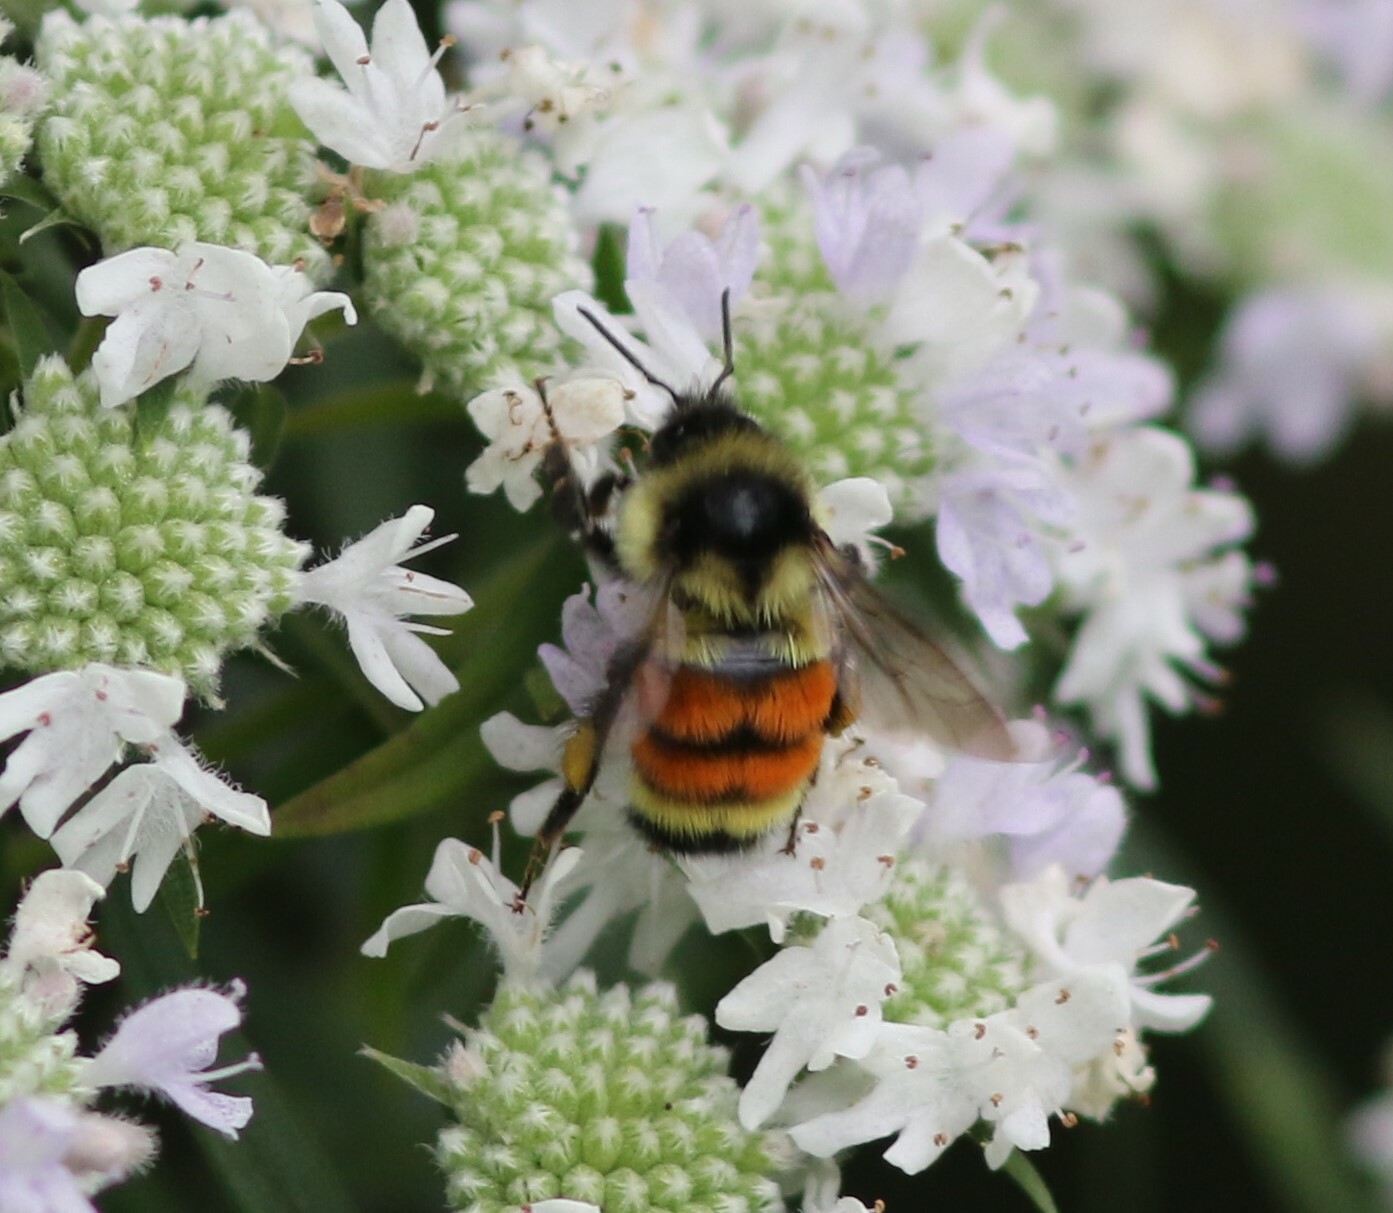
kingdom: Animalia
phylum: Arthropoda
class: Insecta
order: Hymenoptera
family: Apidae
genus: Bombus
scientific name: Bombus ternarius
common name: Tri-colored bumble bee
